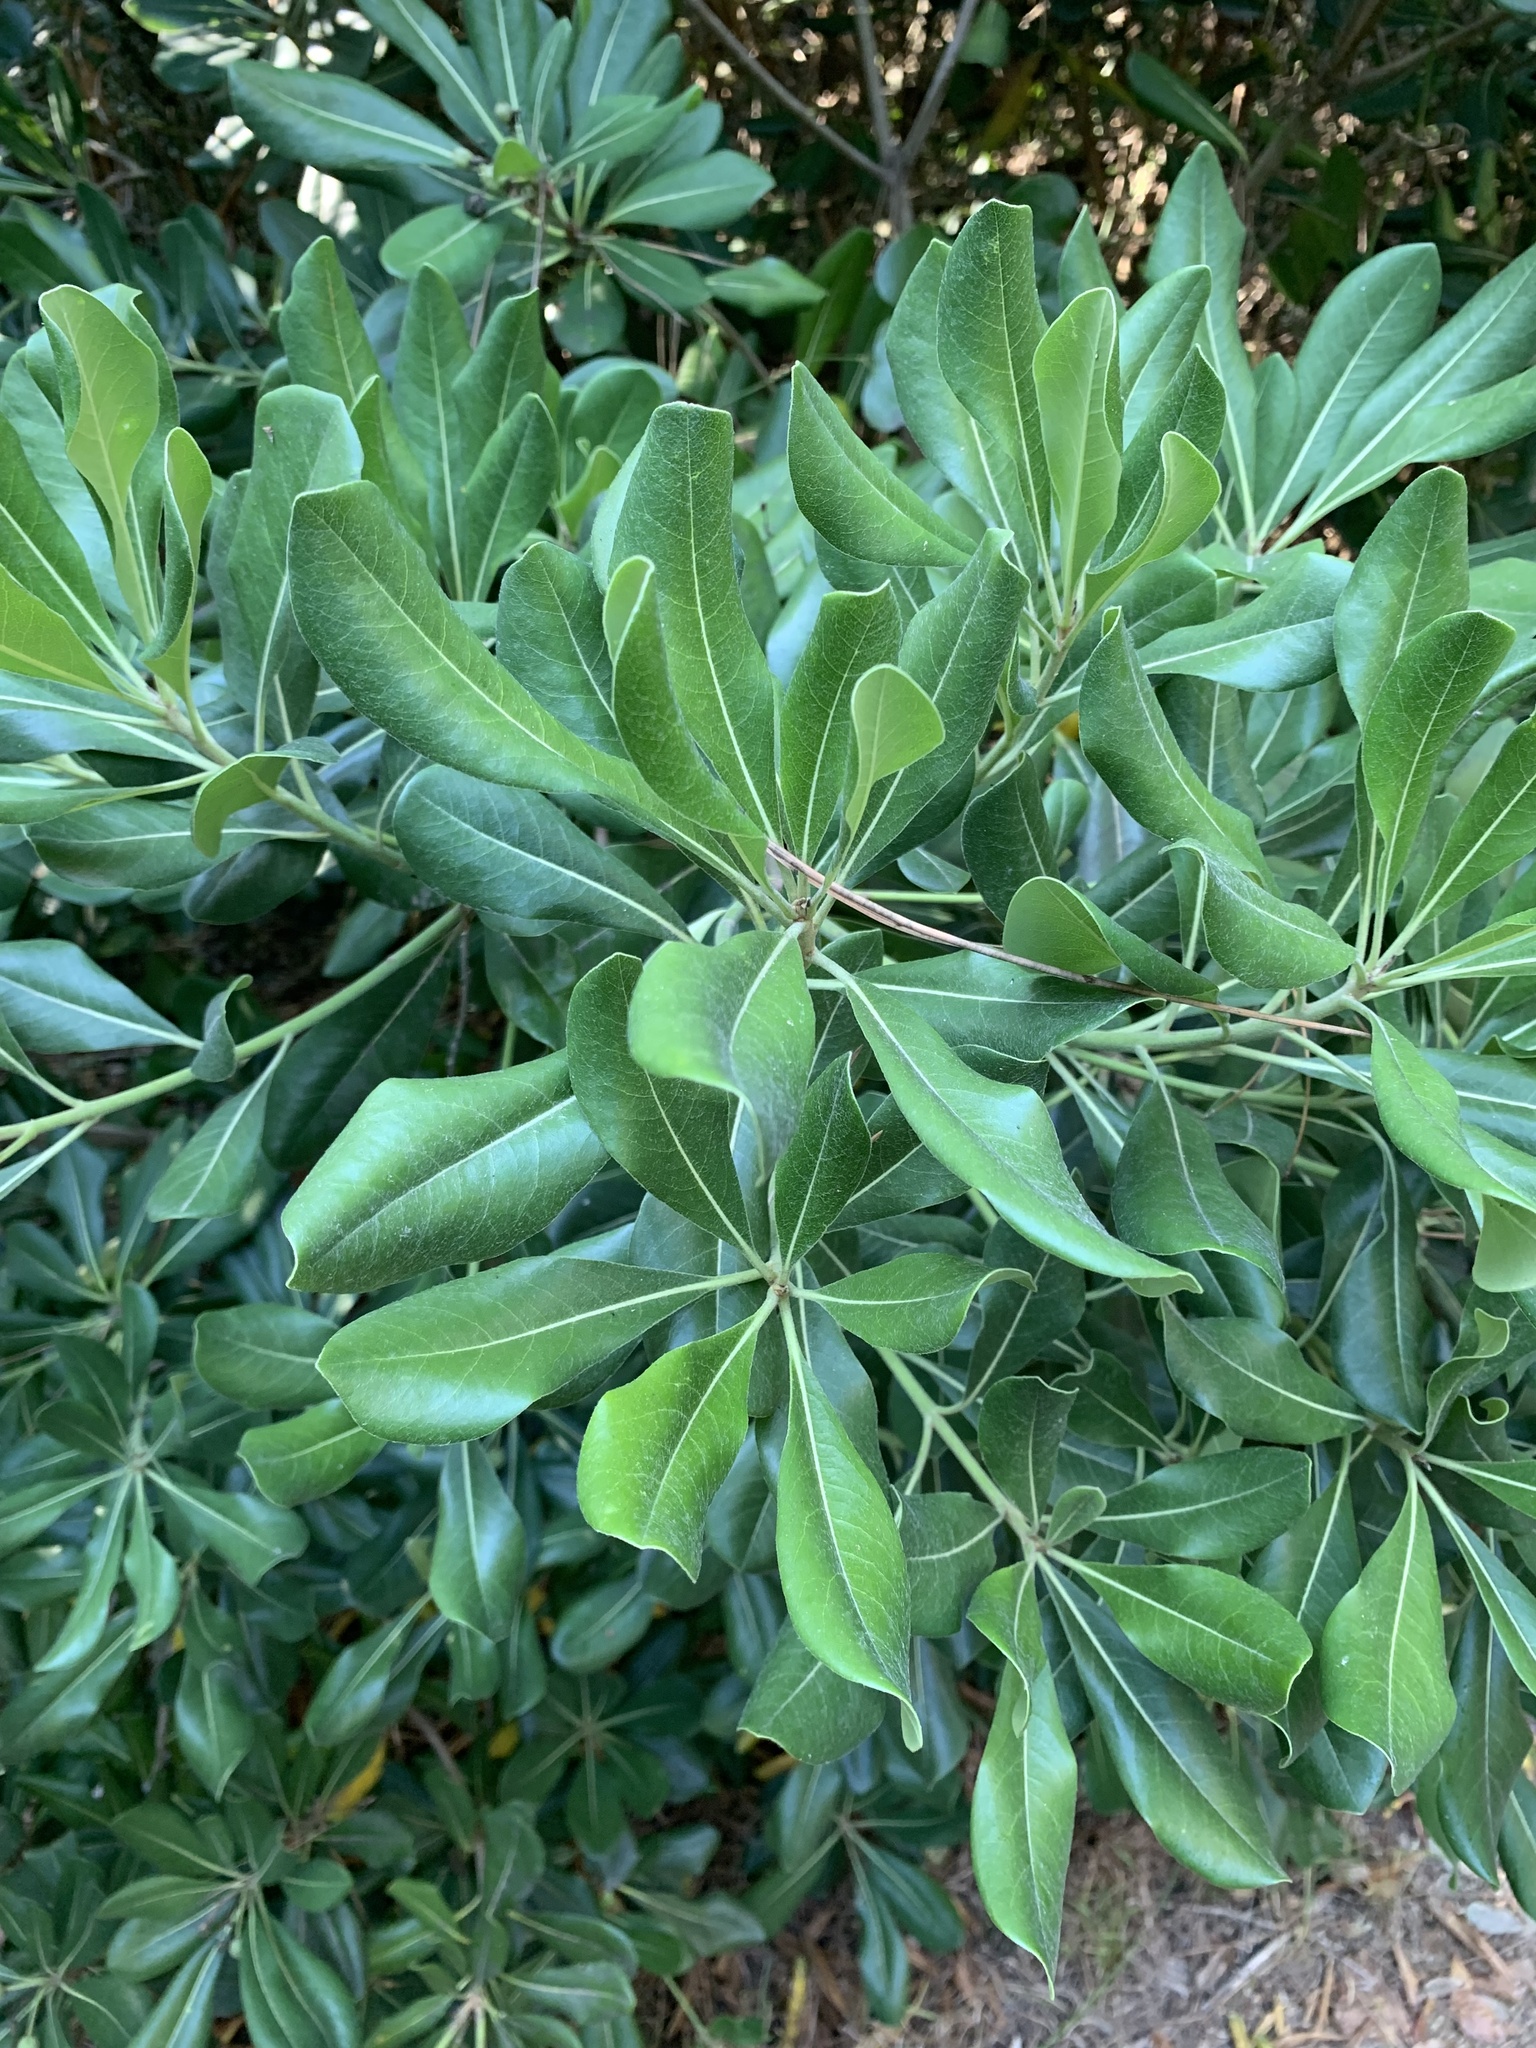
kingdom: Plantae
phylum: Tracheophyta
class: Magnoliopsida
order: Apiales
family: Pittosporaceae
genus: Pittosporum
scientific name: Pittosporum tobira
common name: Japanese cheesewood
